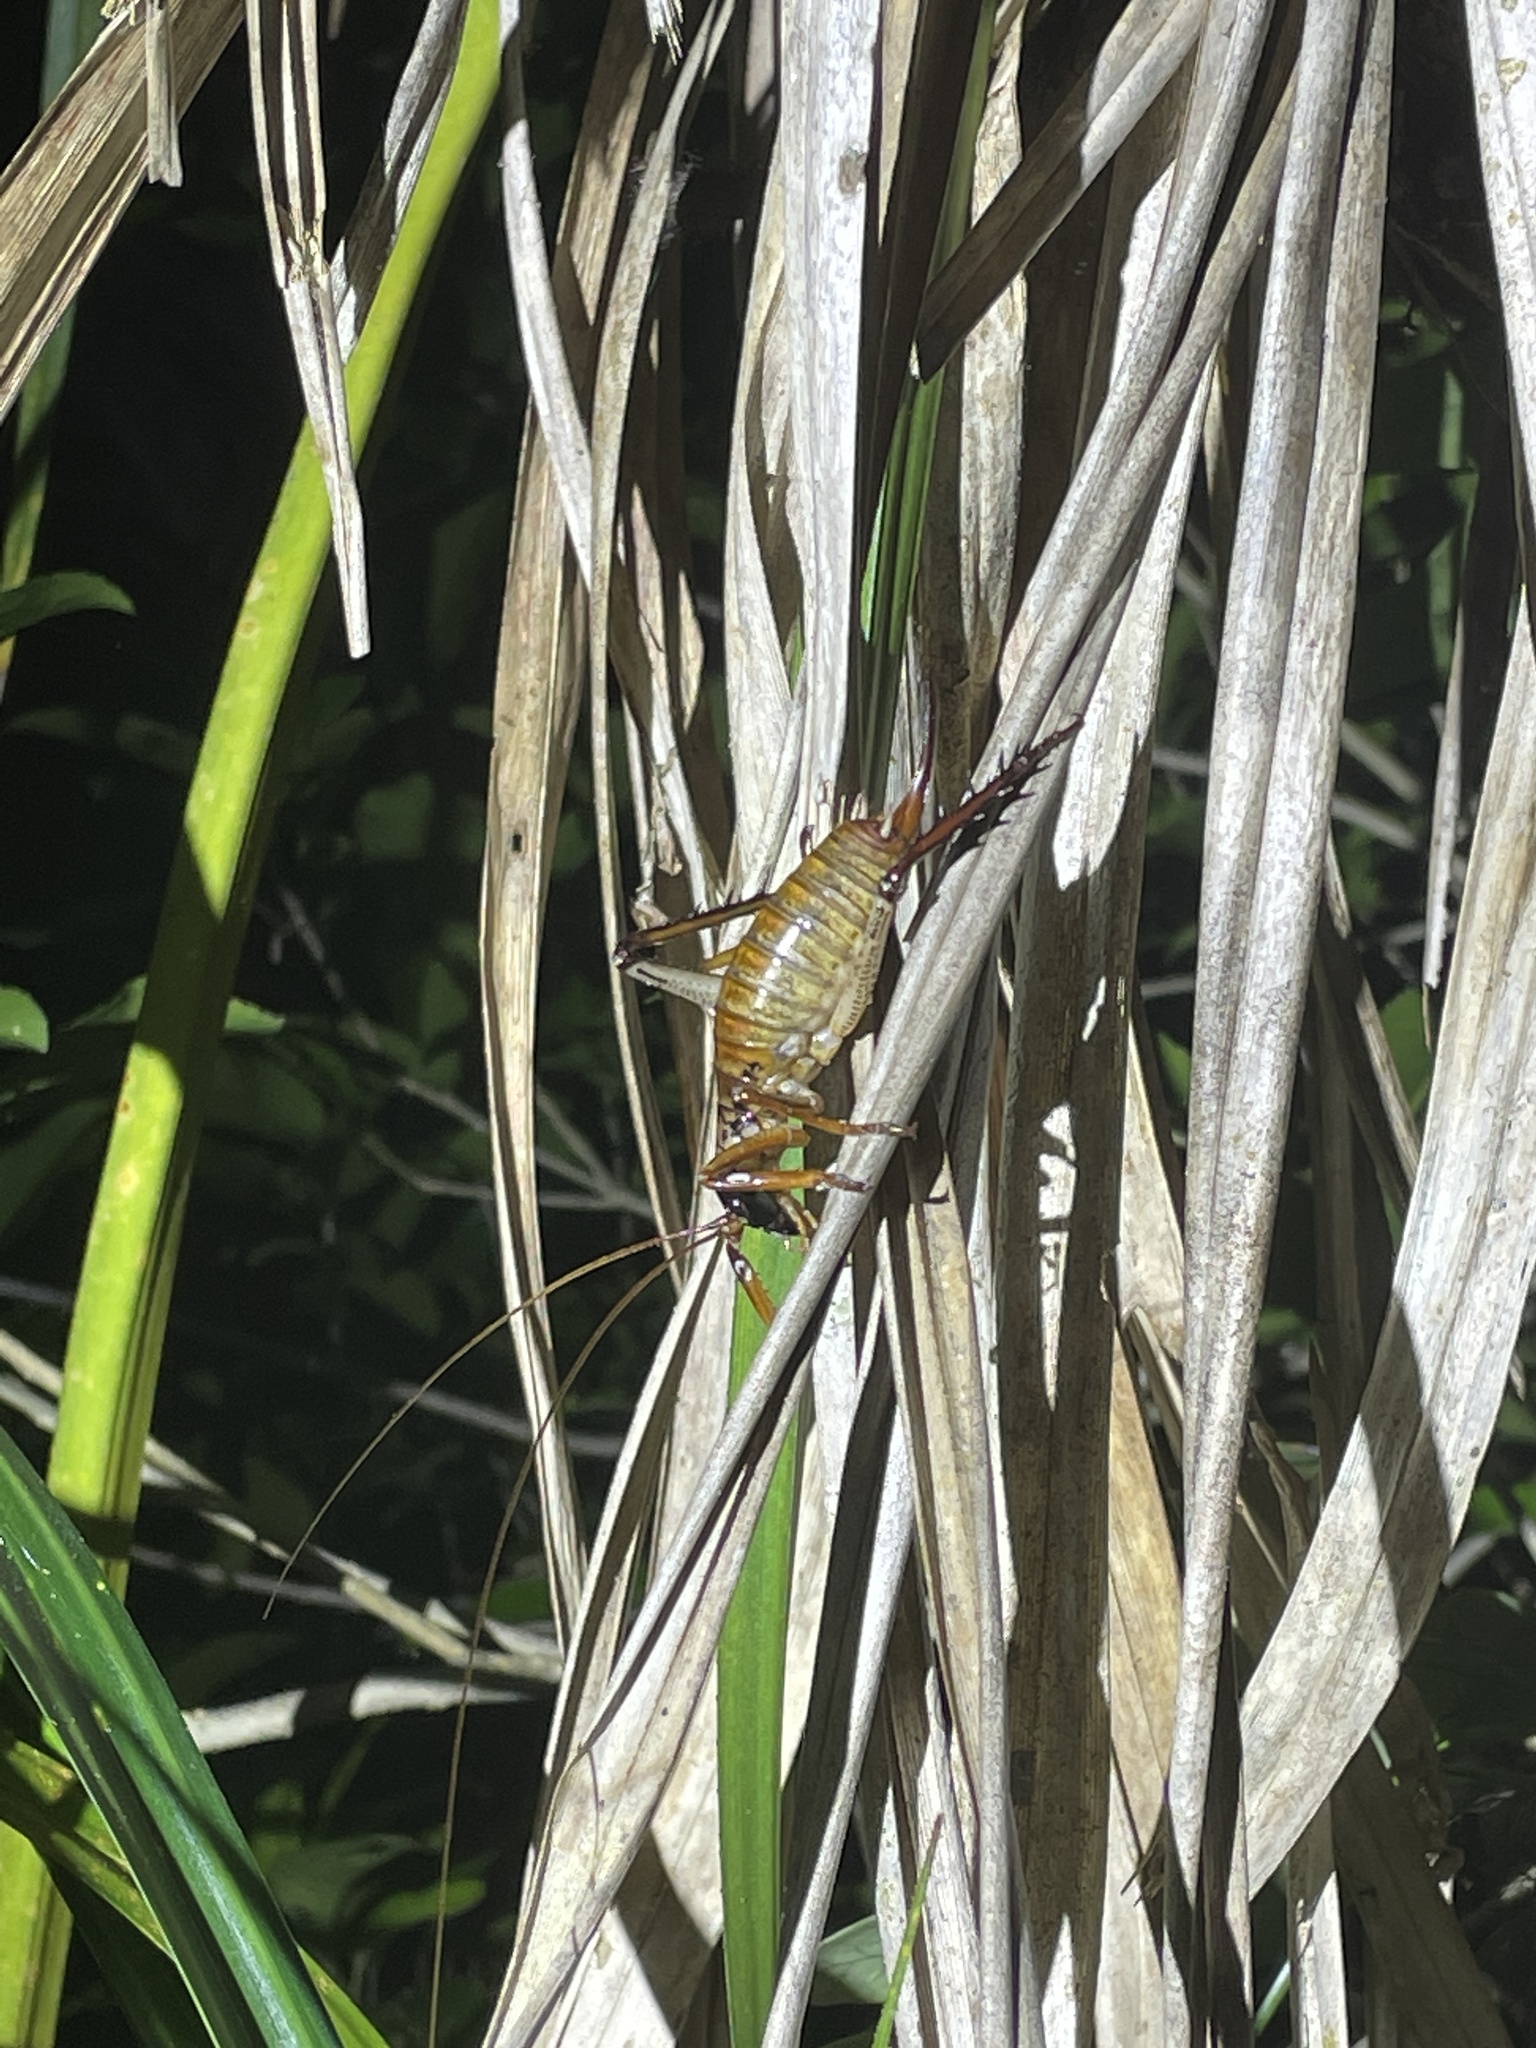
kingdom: Animalia
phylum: Arthropoda
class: Insecta
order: Orthoptera
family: Anostostomatidae
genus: Hemideina
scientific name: Hemideina thoracica
